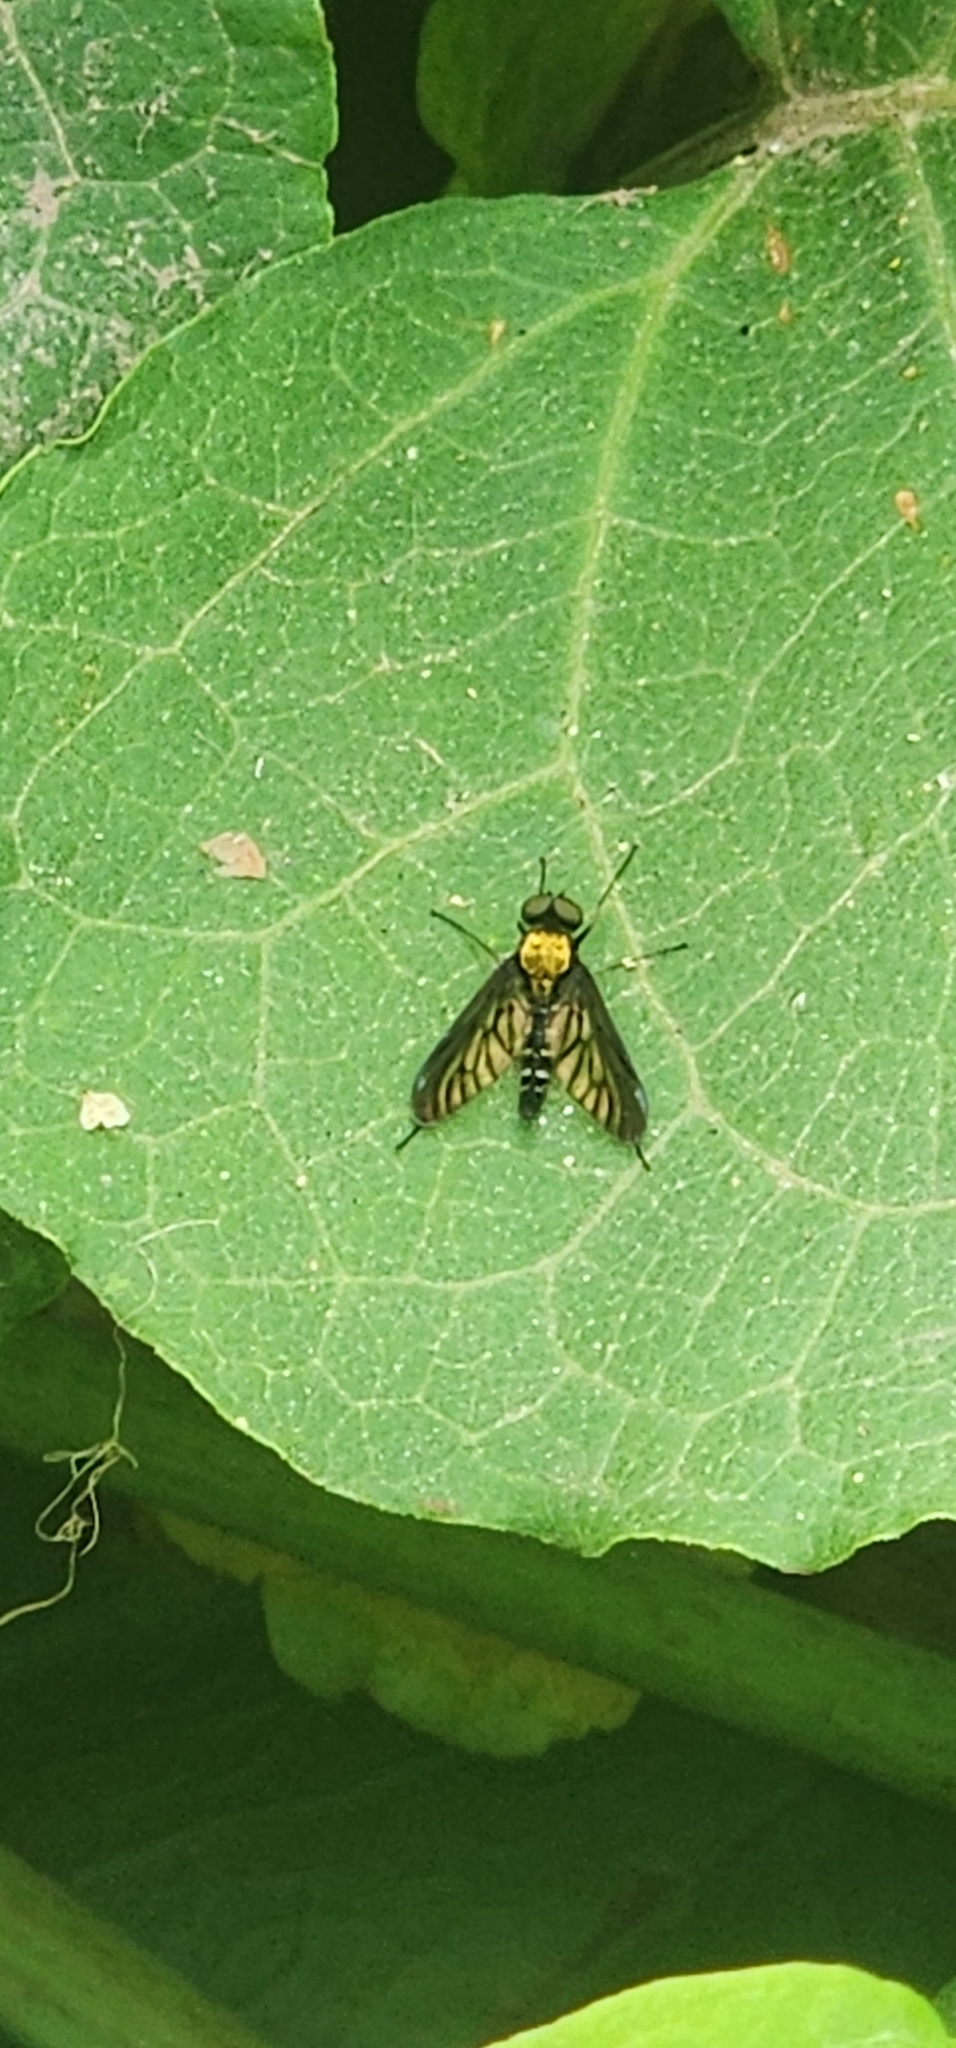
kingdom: Animalia
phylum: Arthropoda
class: Insecta
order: Diptera
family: Rhagionidae
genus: Chrysopilus
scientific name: Chrysopilus thoracicus
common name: Golden-backed snipe fly
